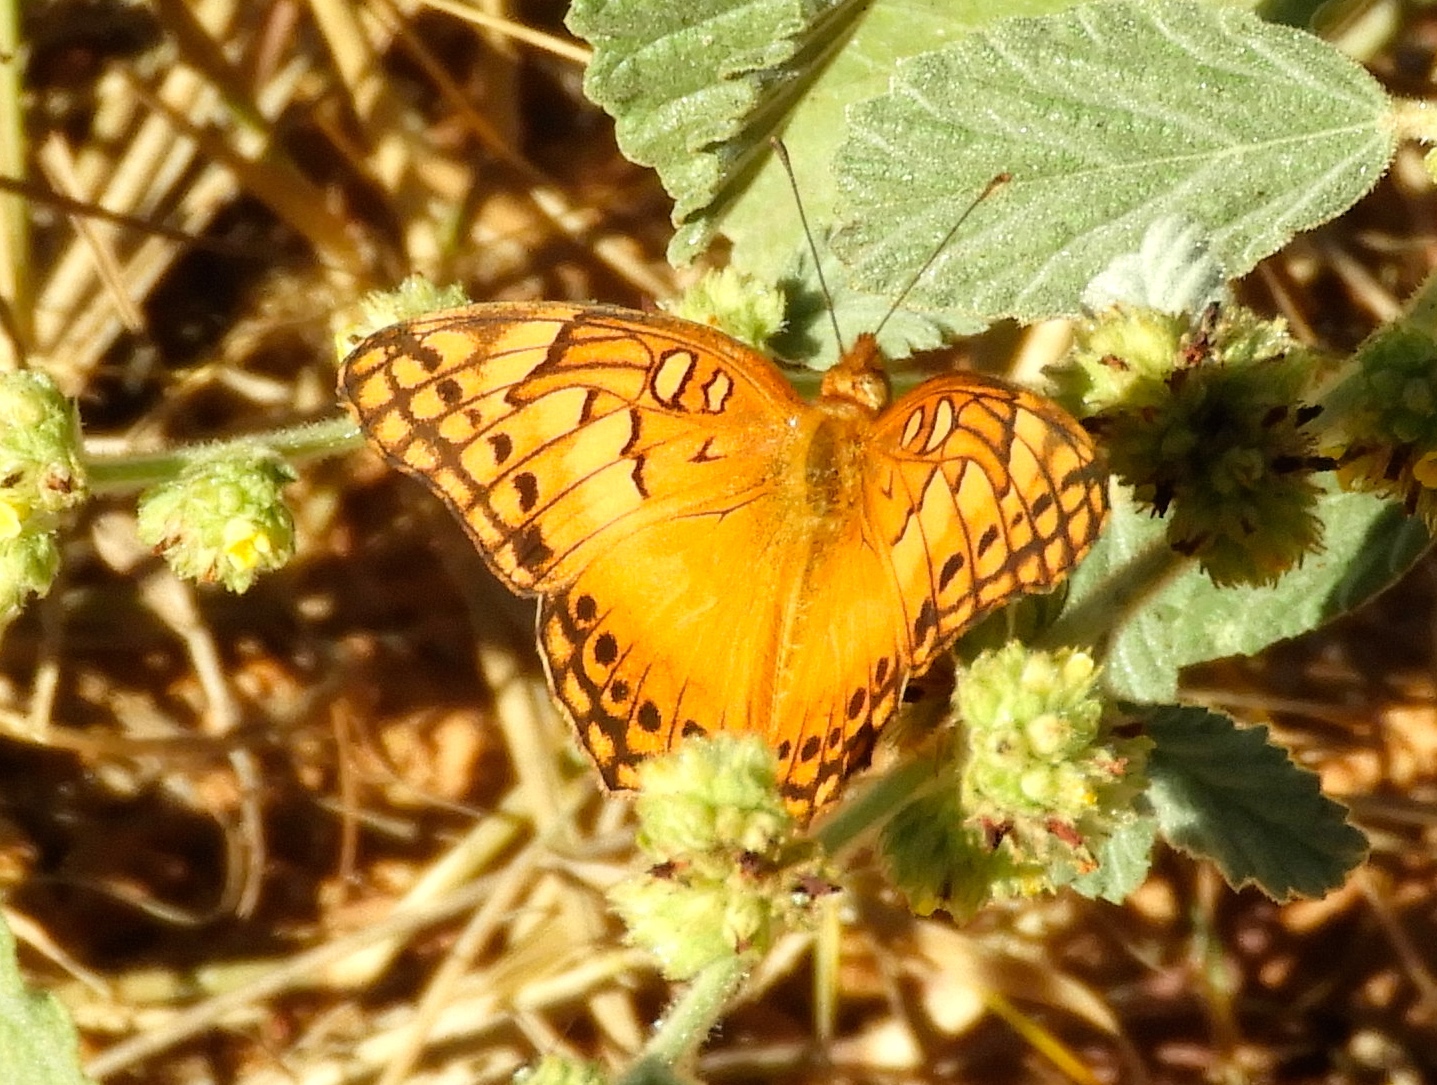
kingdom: Animalia
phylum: Arthropoda
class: Insecta
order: Lepidoptera
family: Nymphalidae
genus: Euptoieta
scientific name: Euptoieta hegesia
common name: Mexican fritillary
